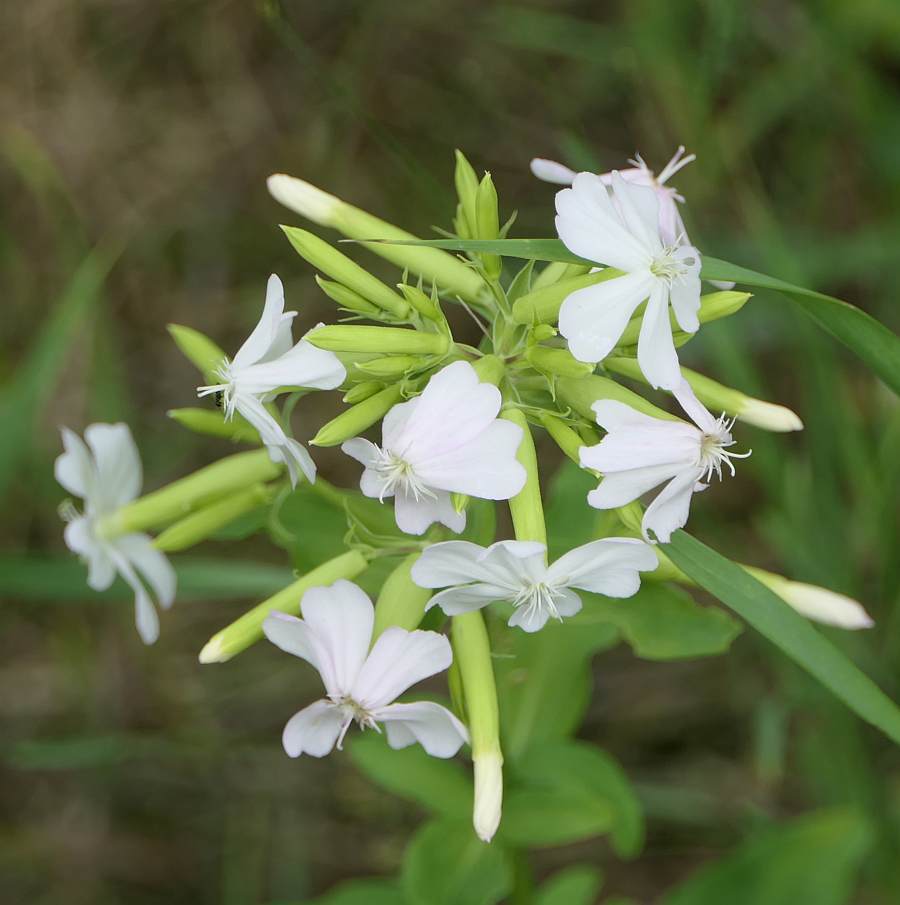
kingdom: Plantae
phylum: Tracheophyta
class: Magnoliopsida
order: Caryophyllales
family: Caryophyllaceae
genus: Saponaria
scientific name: Saponaria officinalis
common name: Soapwort
